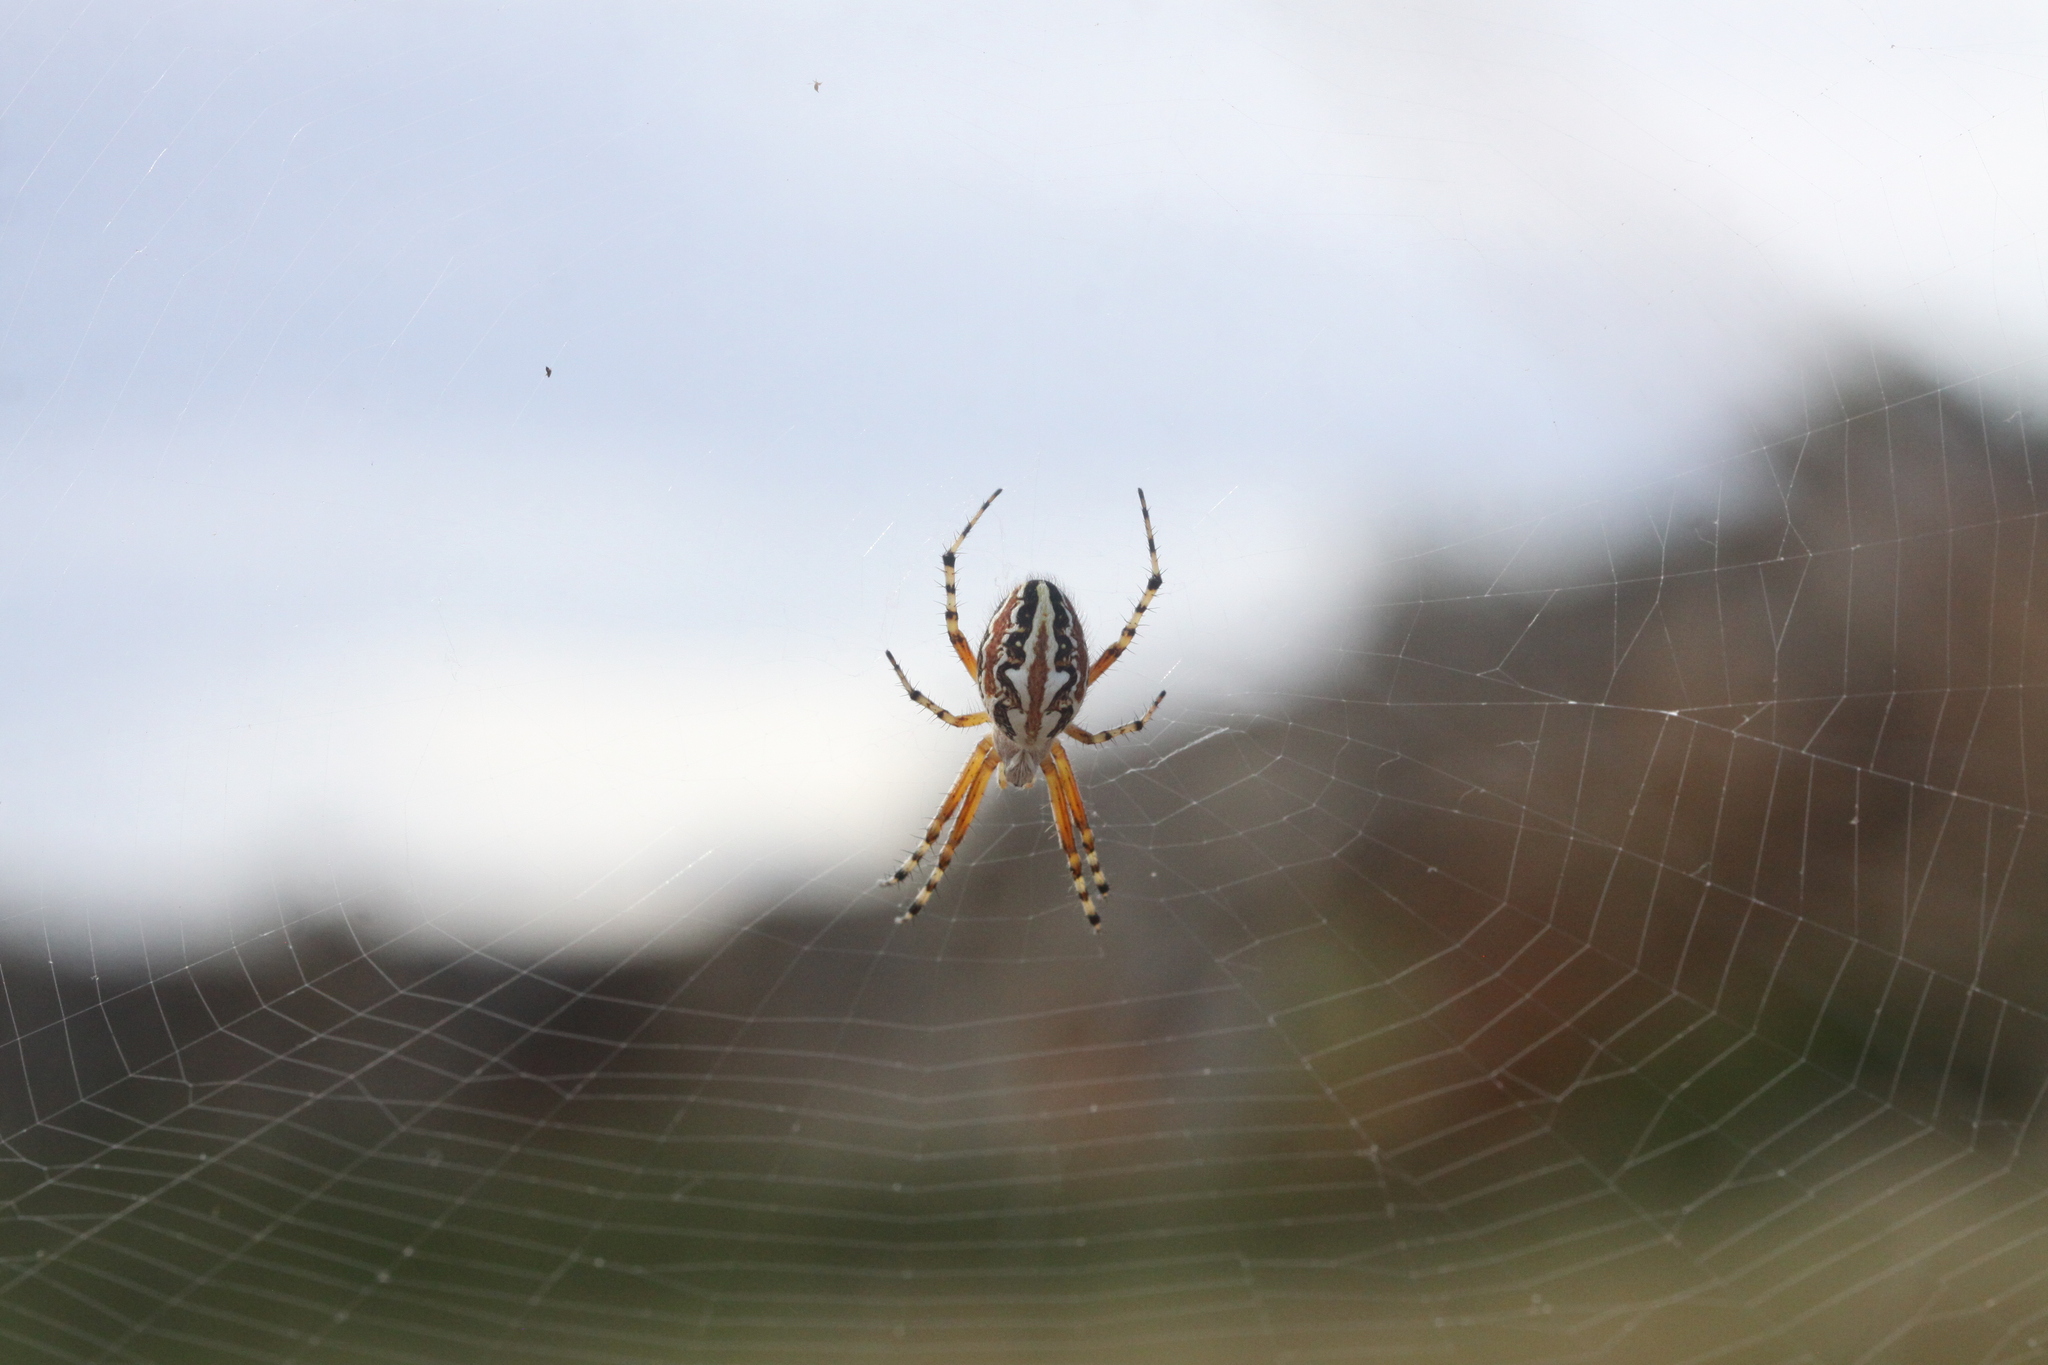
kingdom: Animalia
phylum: Arthropoda
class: Arachnida
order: Araneae
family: Araneidae
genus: Aculepeira
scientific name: Aculepeira armida
